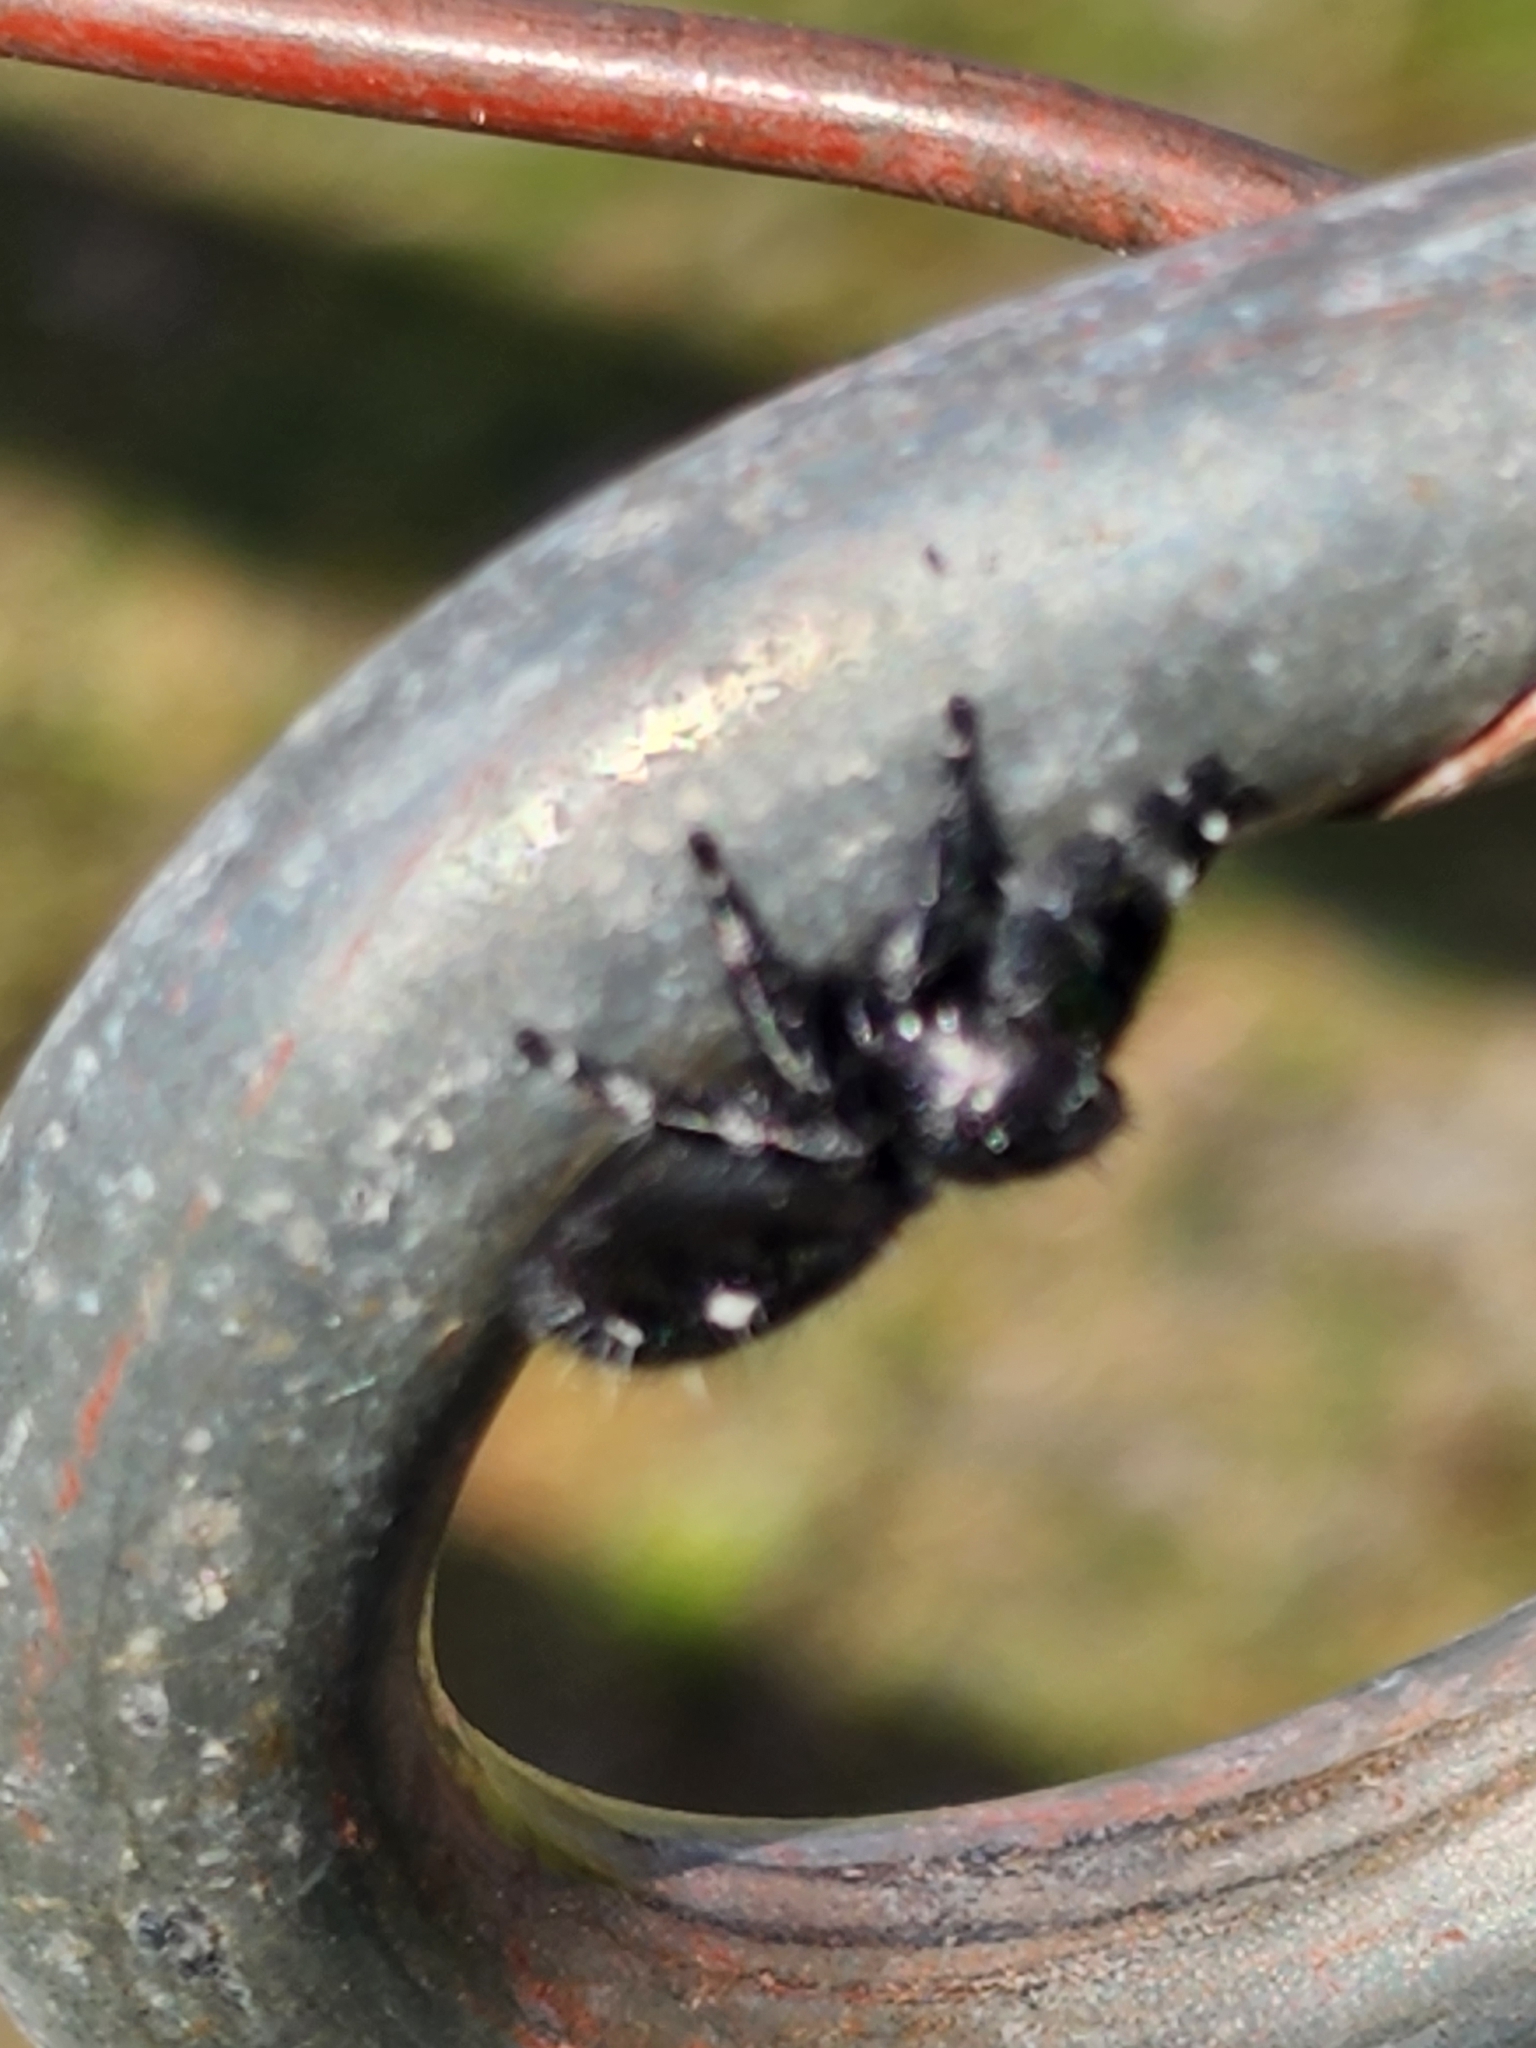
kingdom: Animalia
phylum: Arthropoda
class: Arachnida
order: Araneae
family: Salticidae
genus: Phidippus
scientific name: Phidippus audax
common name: Bold jumper
